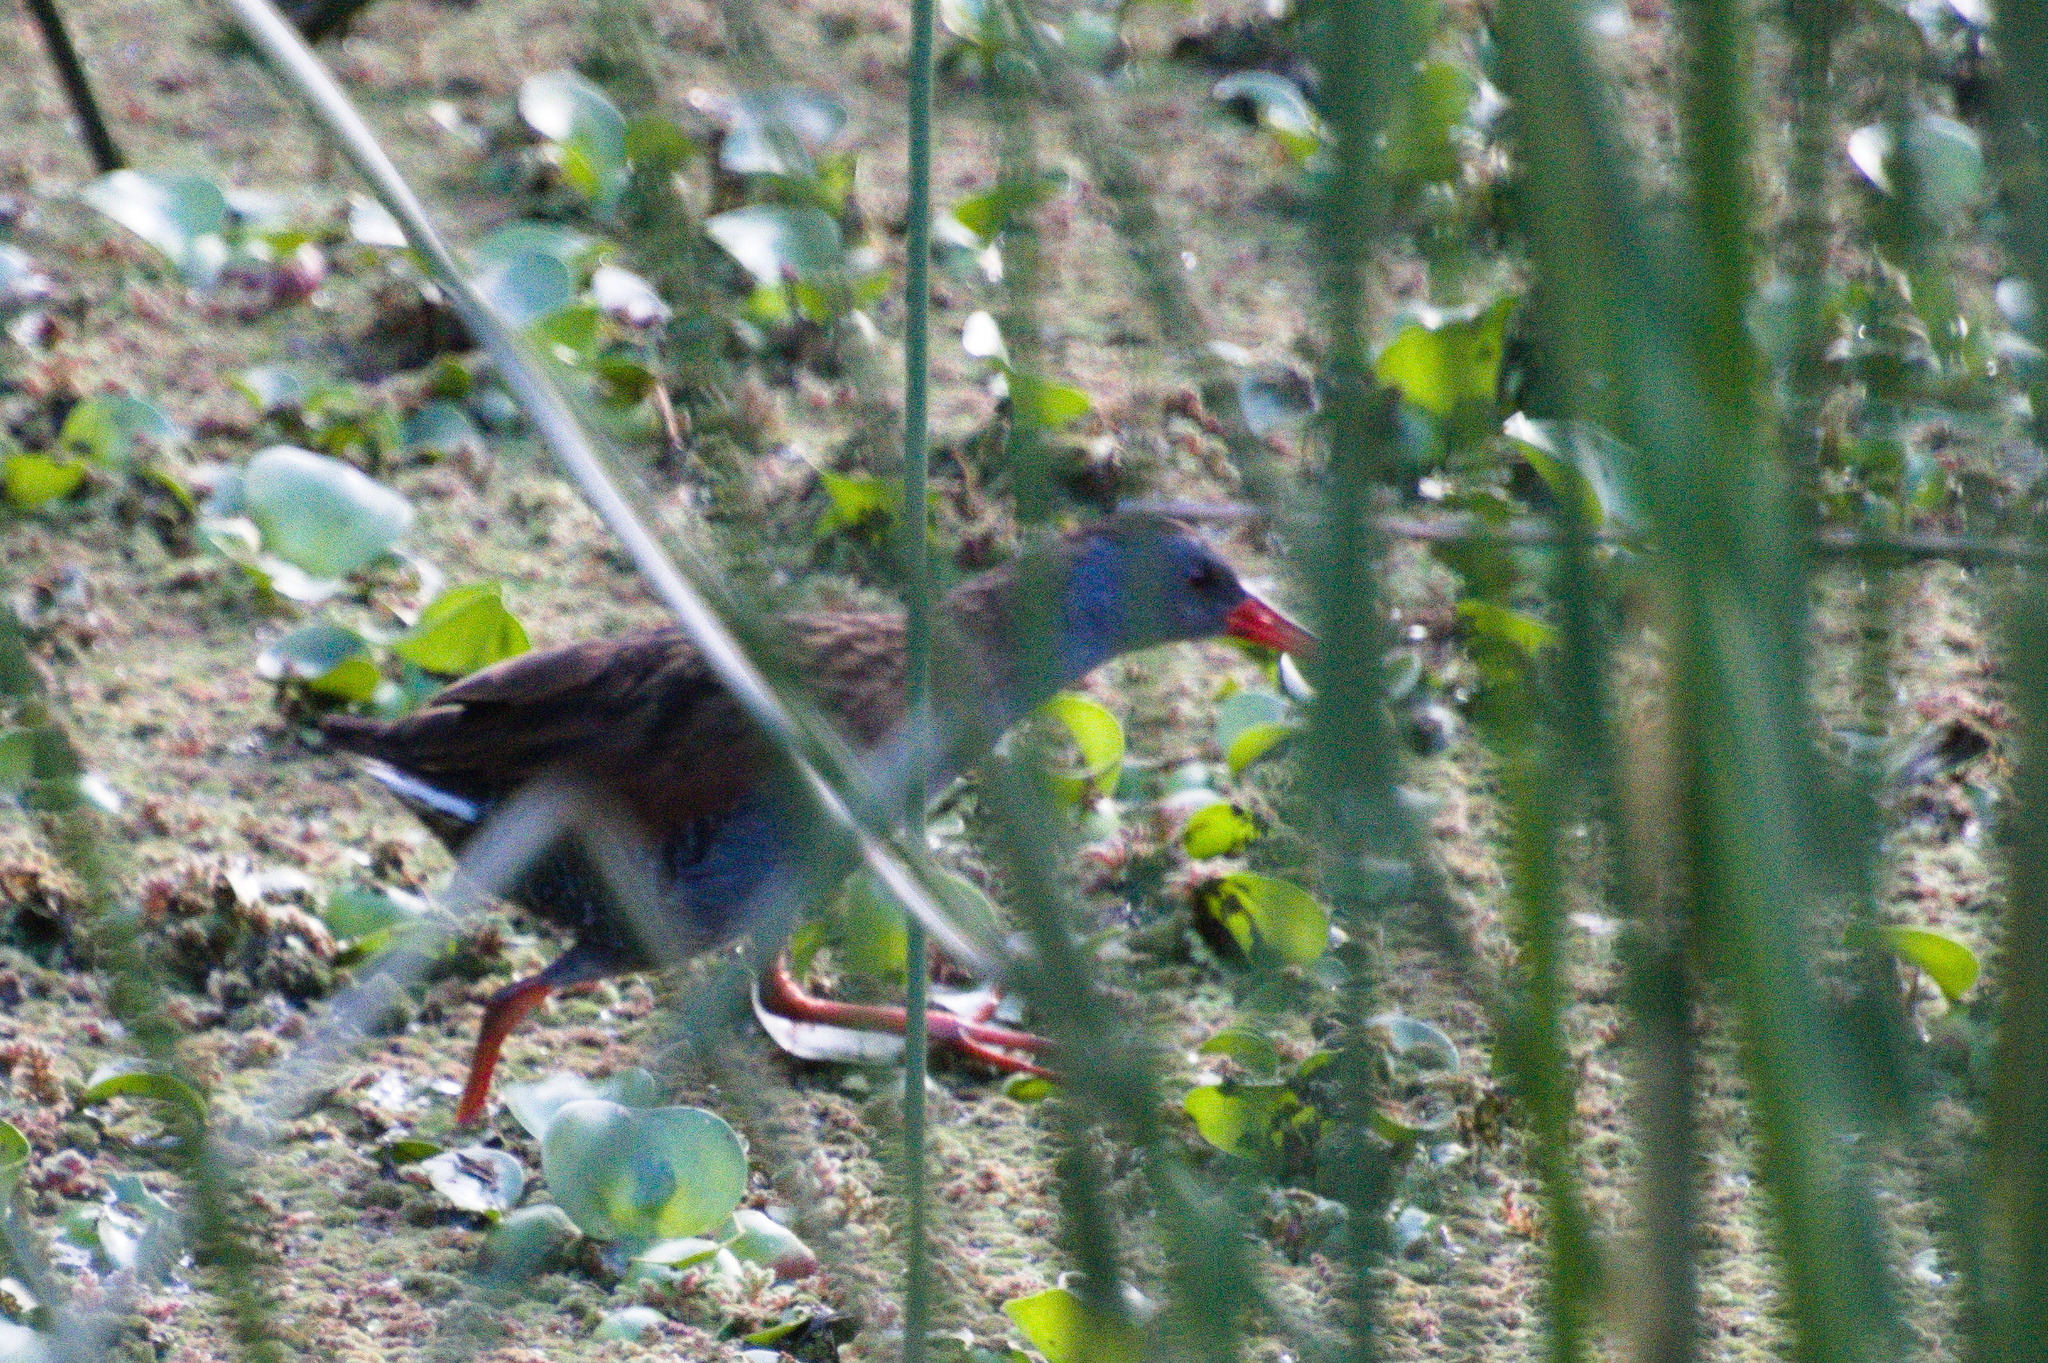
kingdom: Animalia
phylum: Chordata
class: Aves
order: Gruiformes
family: Rallidae
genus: Rallus
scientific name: Rallus semiplumbeus
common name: Bogota rail
